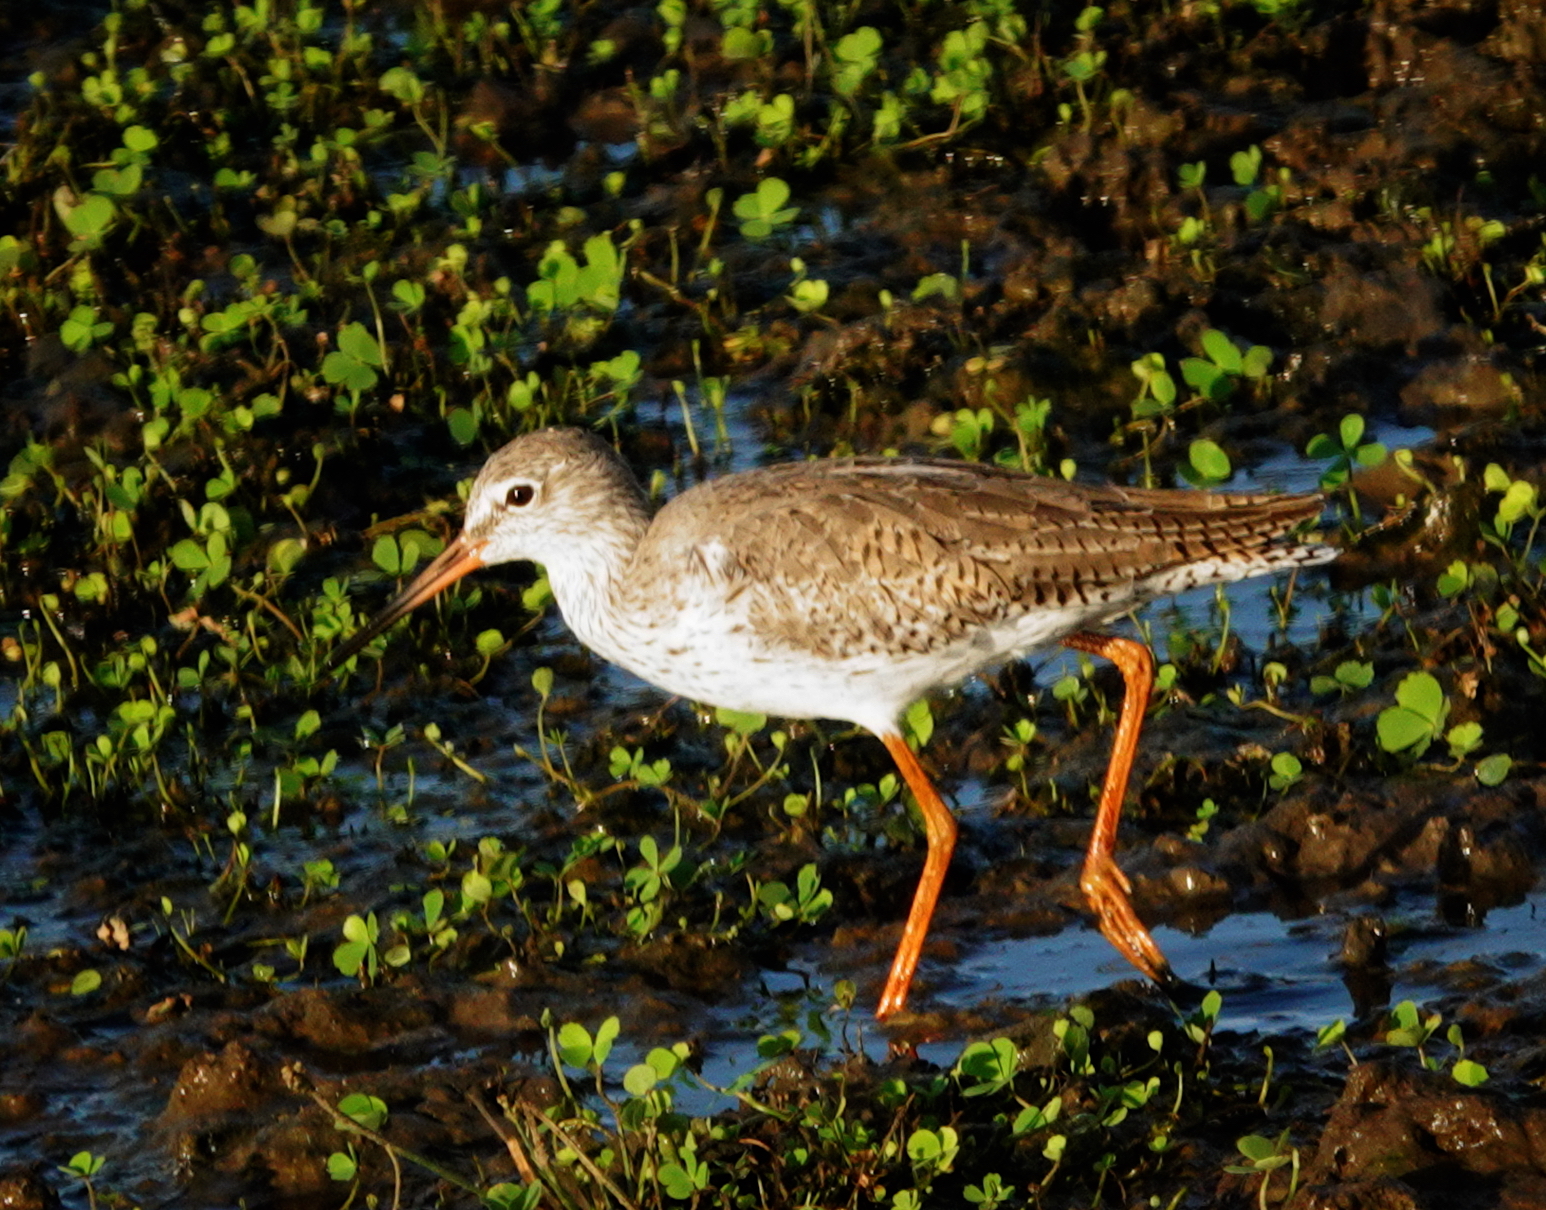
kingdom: Animalia
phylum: Chordata
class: Aves
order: Charadriiformes
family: Scolopacidae
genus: Tringa
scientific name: Tringa totanus
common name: Common redshank
